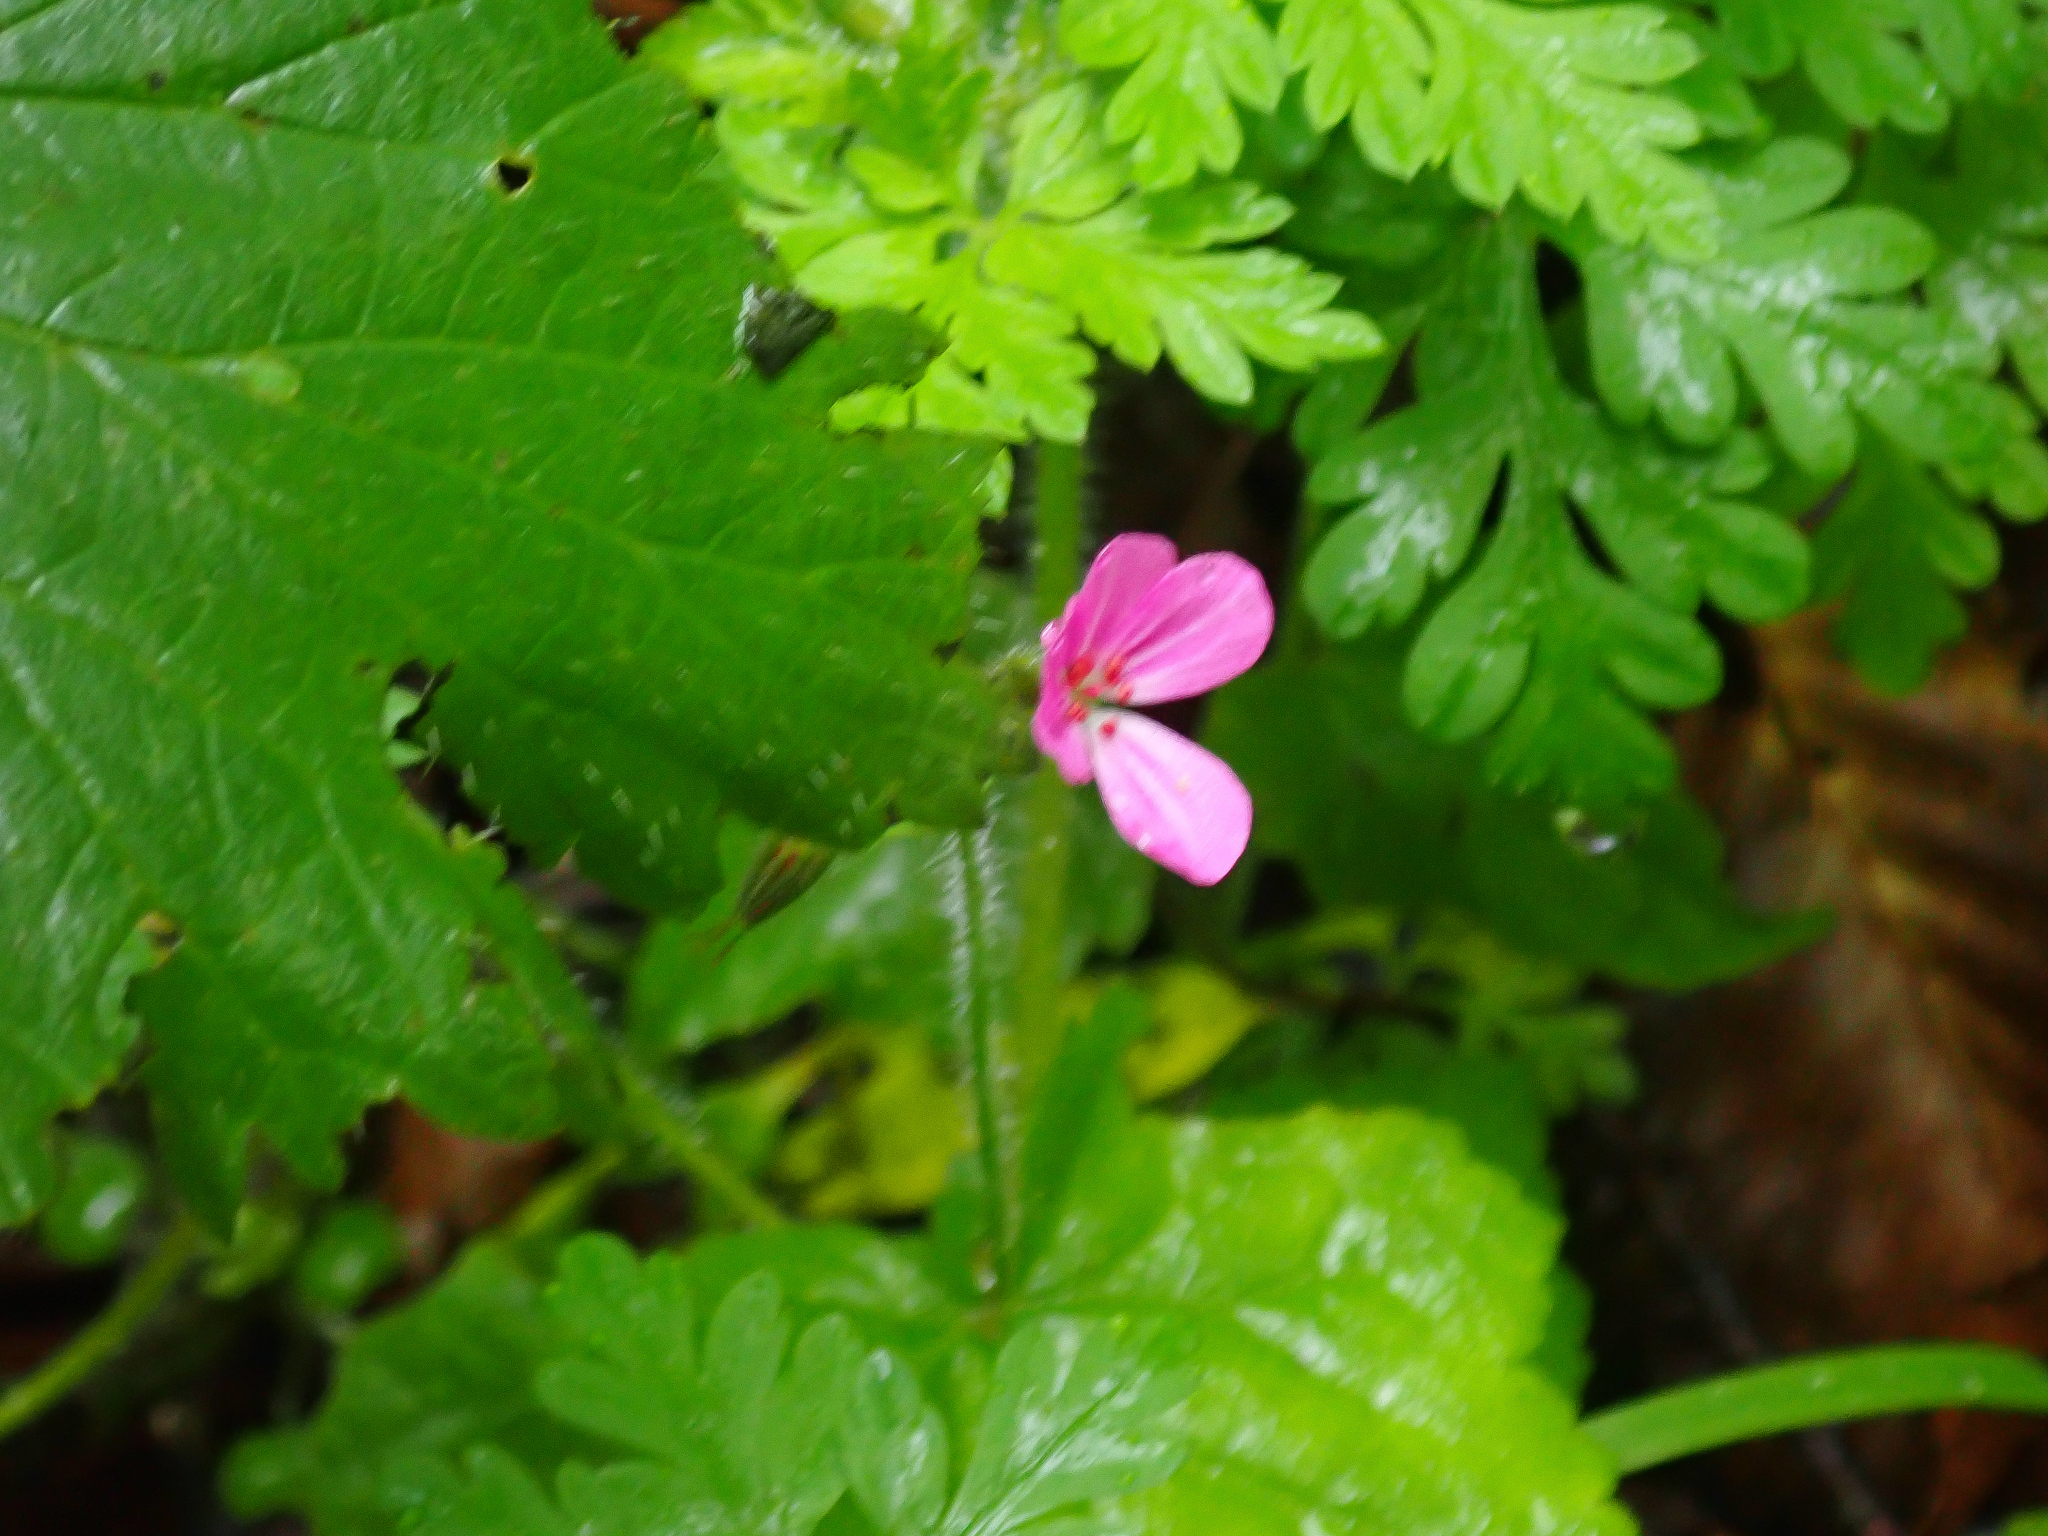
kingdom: Plantae
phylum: Tracheophyta
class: Magnoliopsida
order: Geraniales
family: Geraniaceae
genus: Geranium
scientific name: Geranium robertianum
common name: Herb-robert
